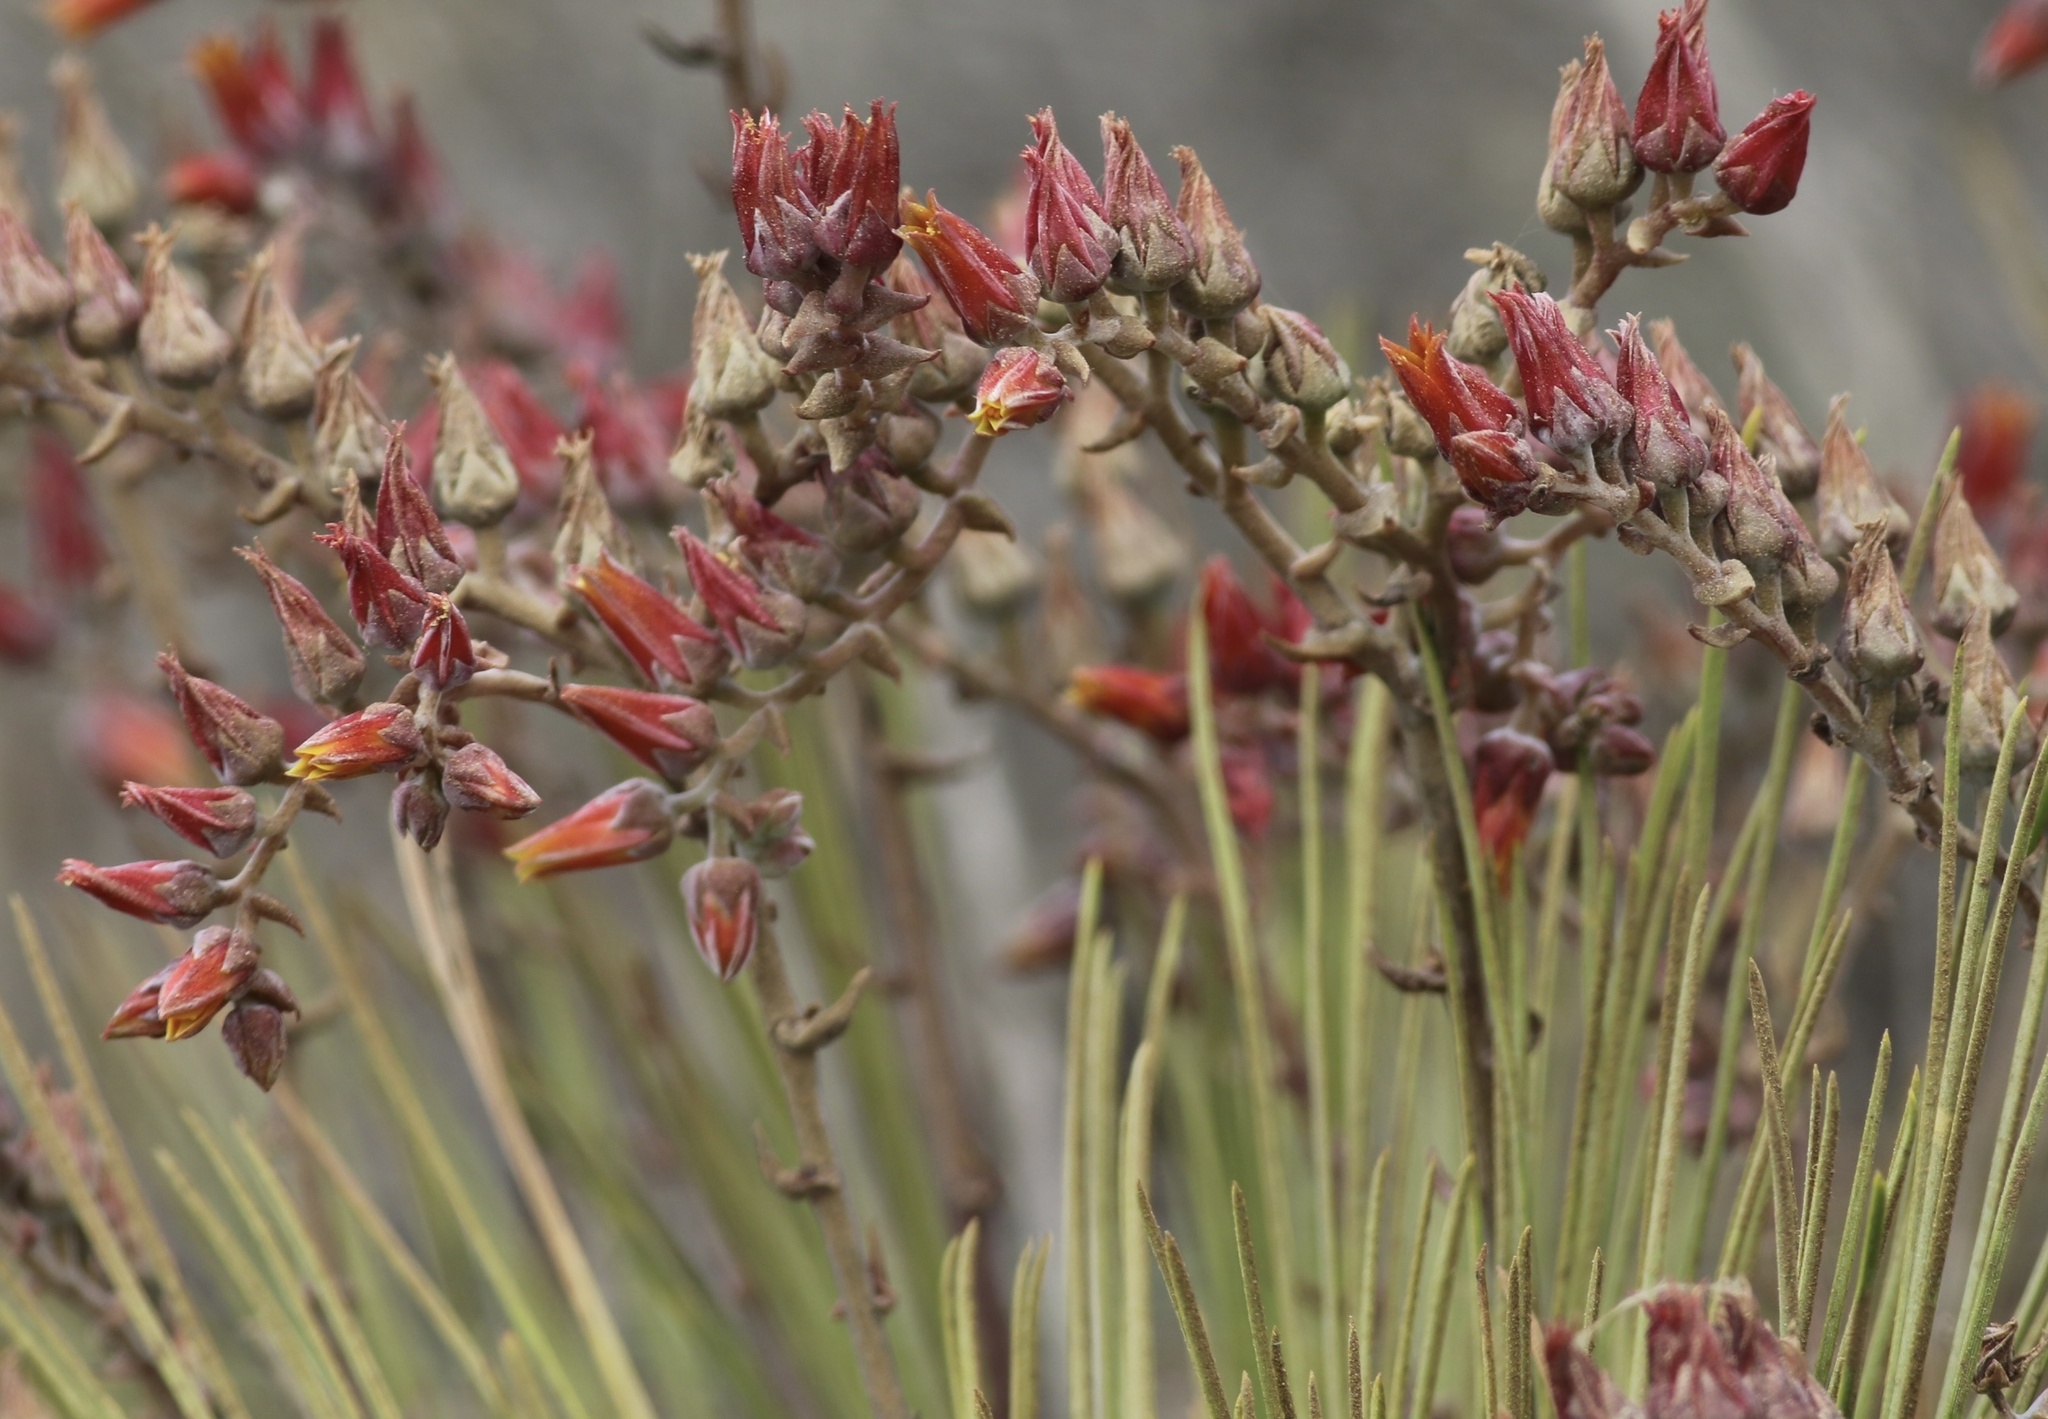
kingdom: Plantae
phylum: Tracheophyta
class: Magnoliopsida
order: Saxifragales
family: Crassulaceae
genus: Dudleya
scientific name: Dudleya lanceolata
